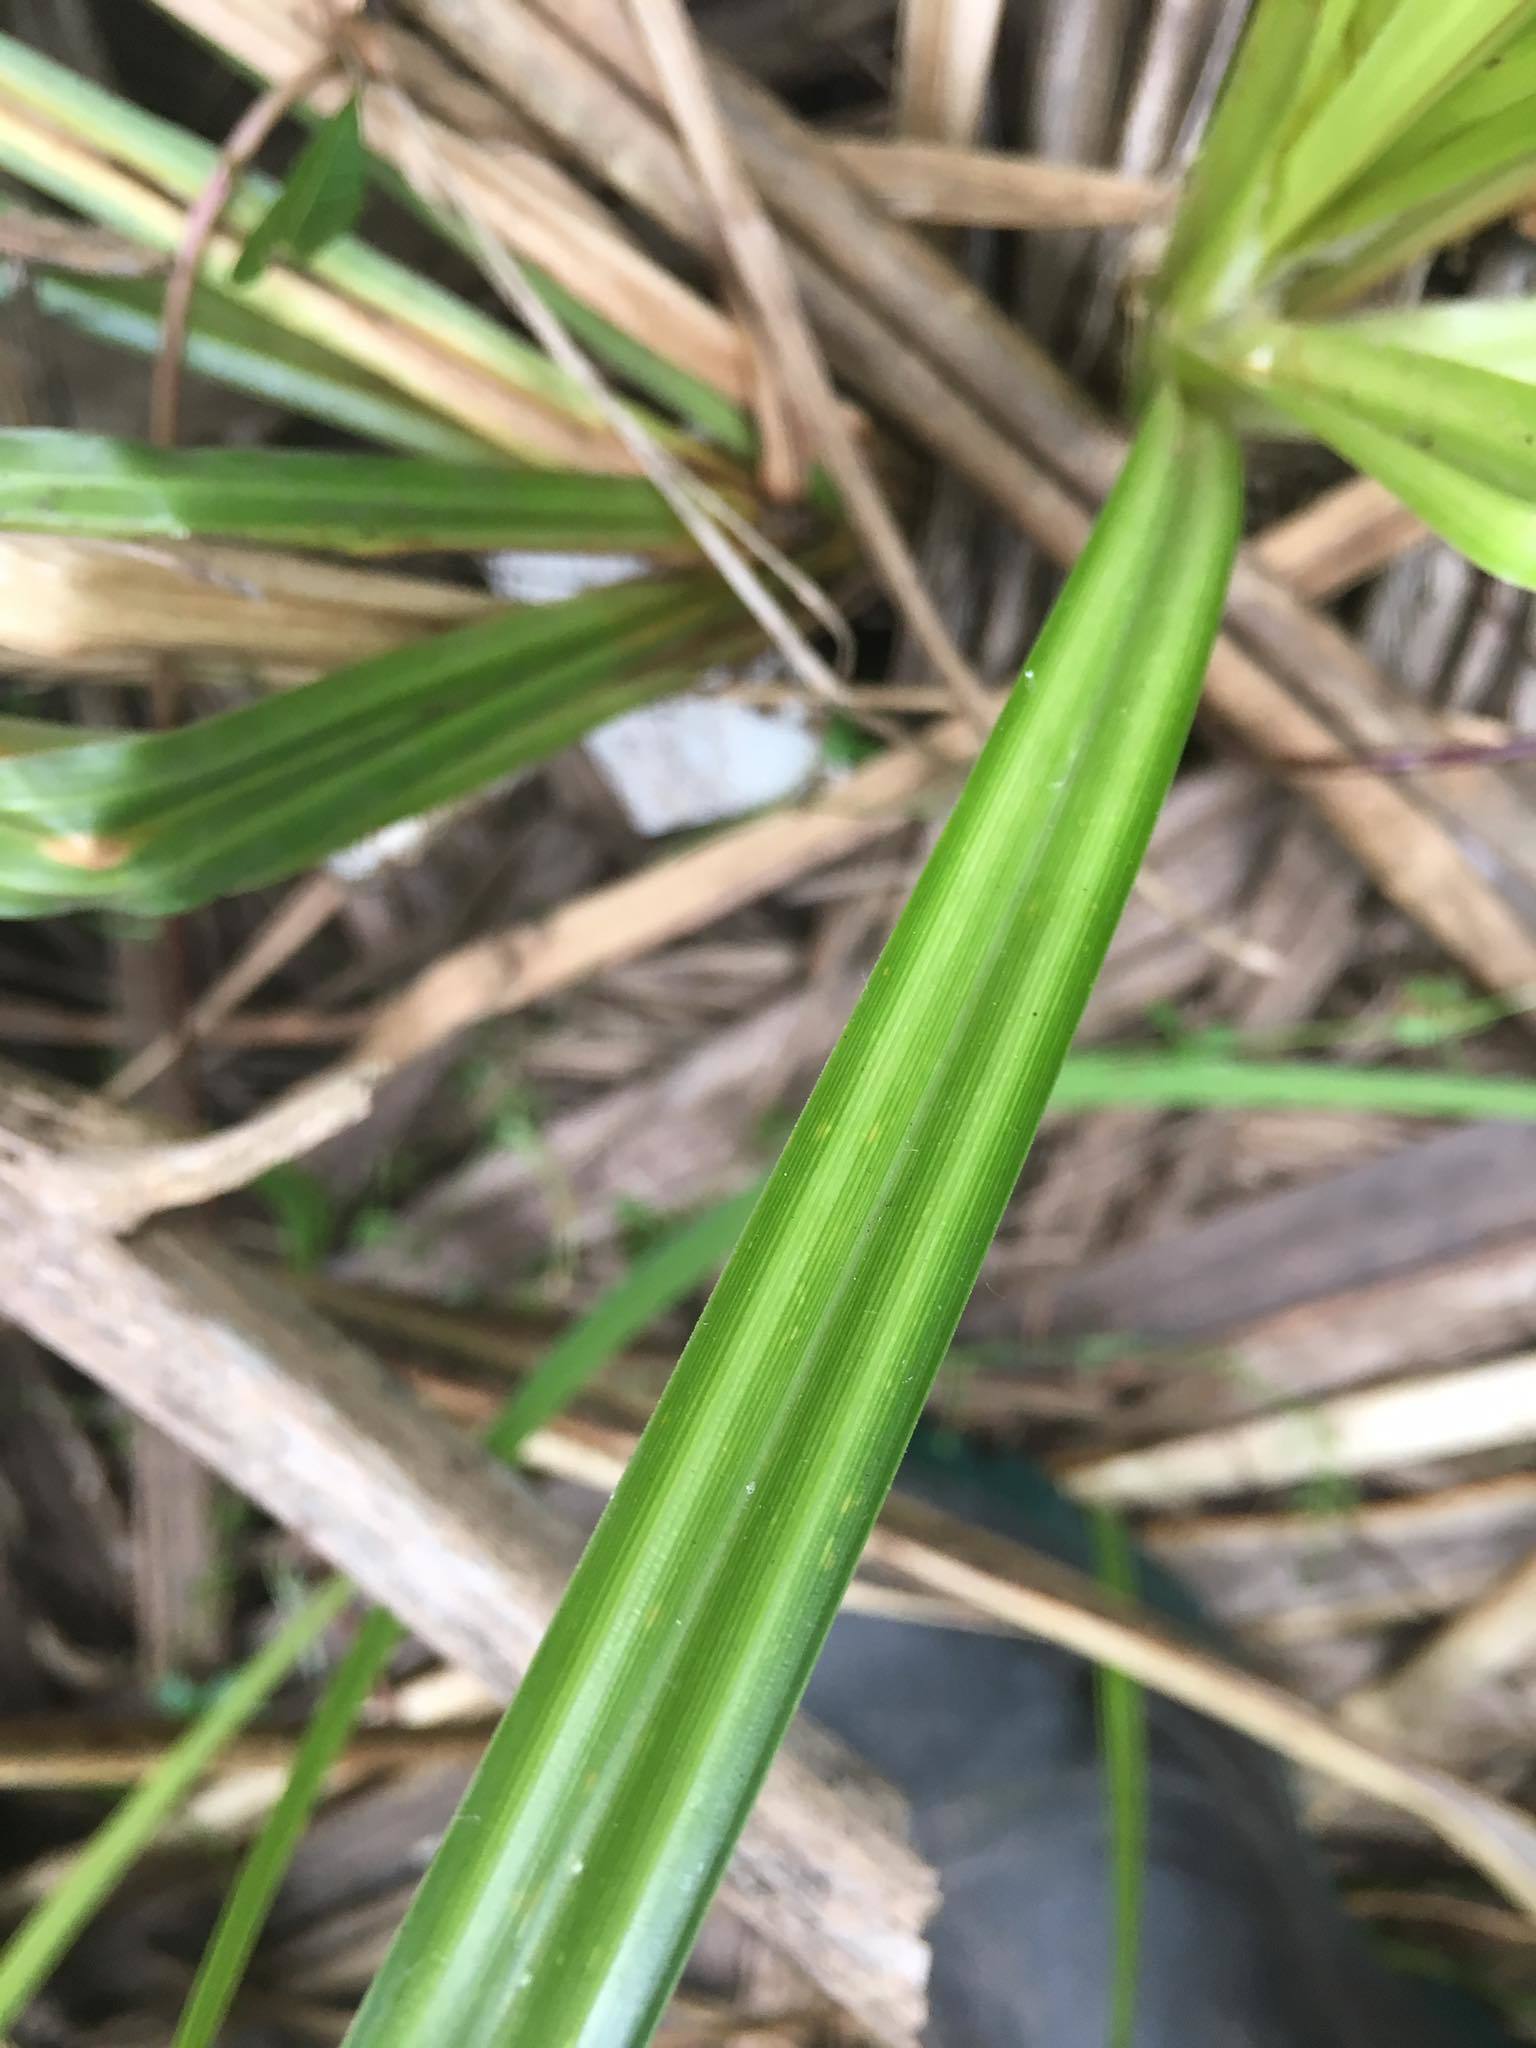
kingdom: Plantae
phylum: Tracheophyta
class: Liliopsida
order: Poales
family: Cyperaceae
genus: Carex
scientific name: Carex geminata
